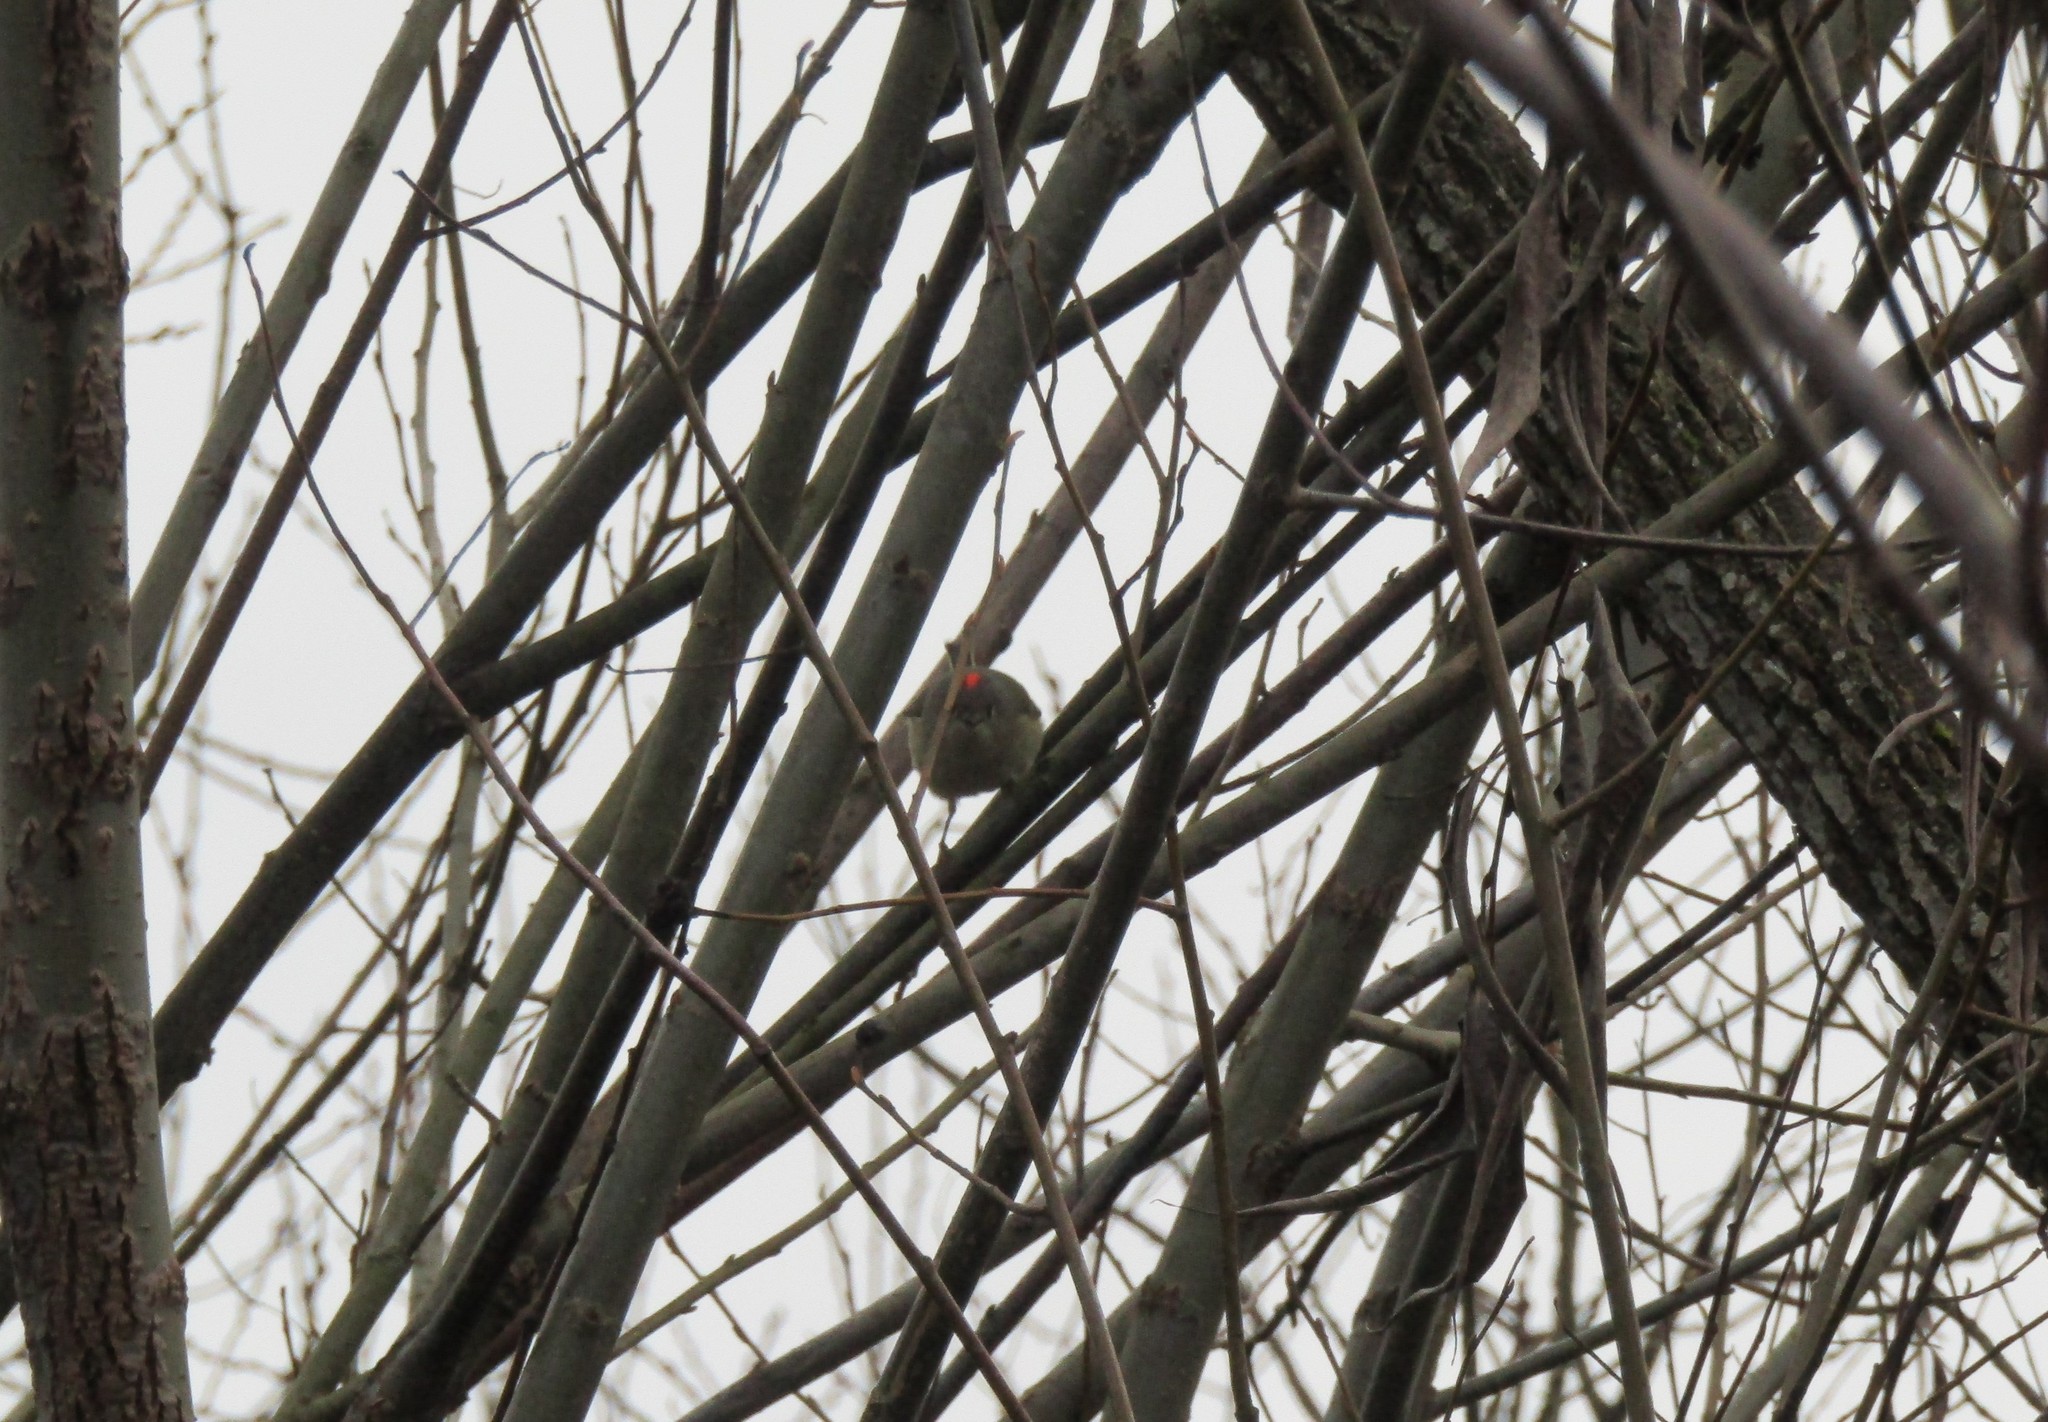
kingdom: Animalia
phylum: Chordata
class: Aves
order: Passeriformes
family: Regulidae
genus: Regulus
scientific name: Regulus calendula
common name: Ruby-crowned kinglet
